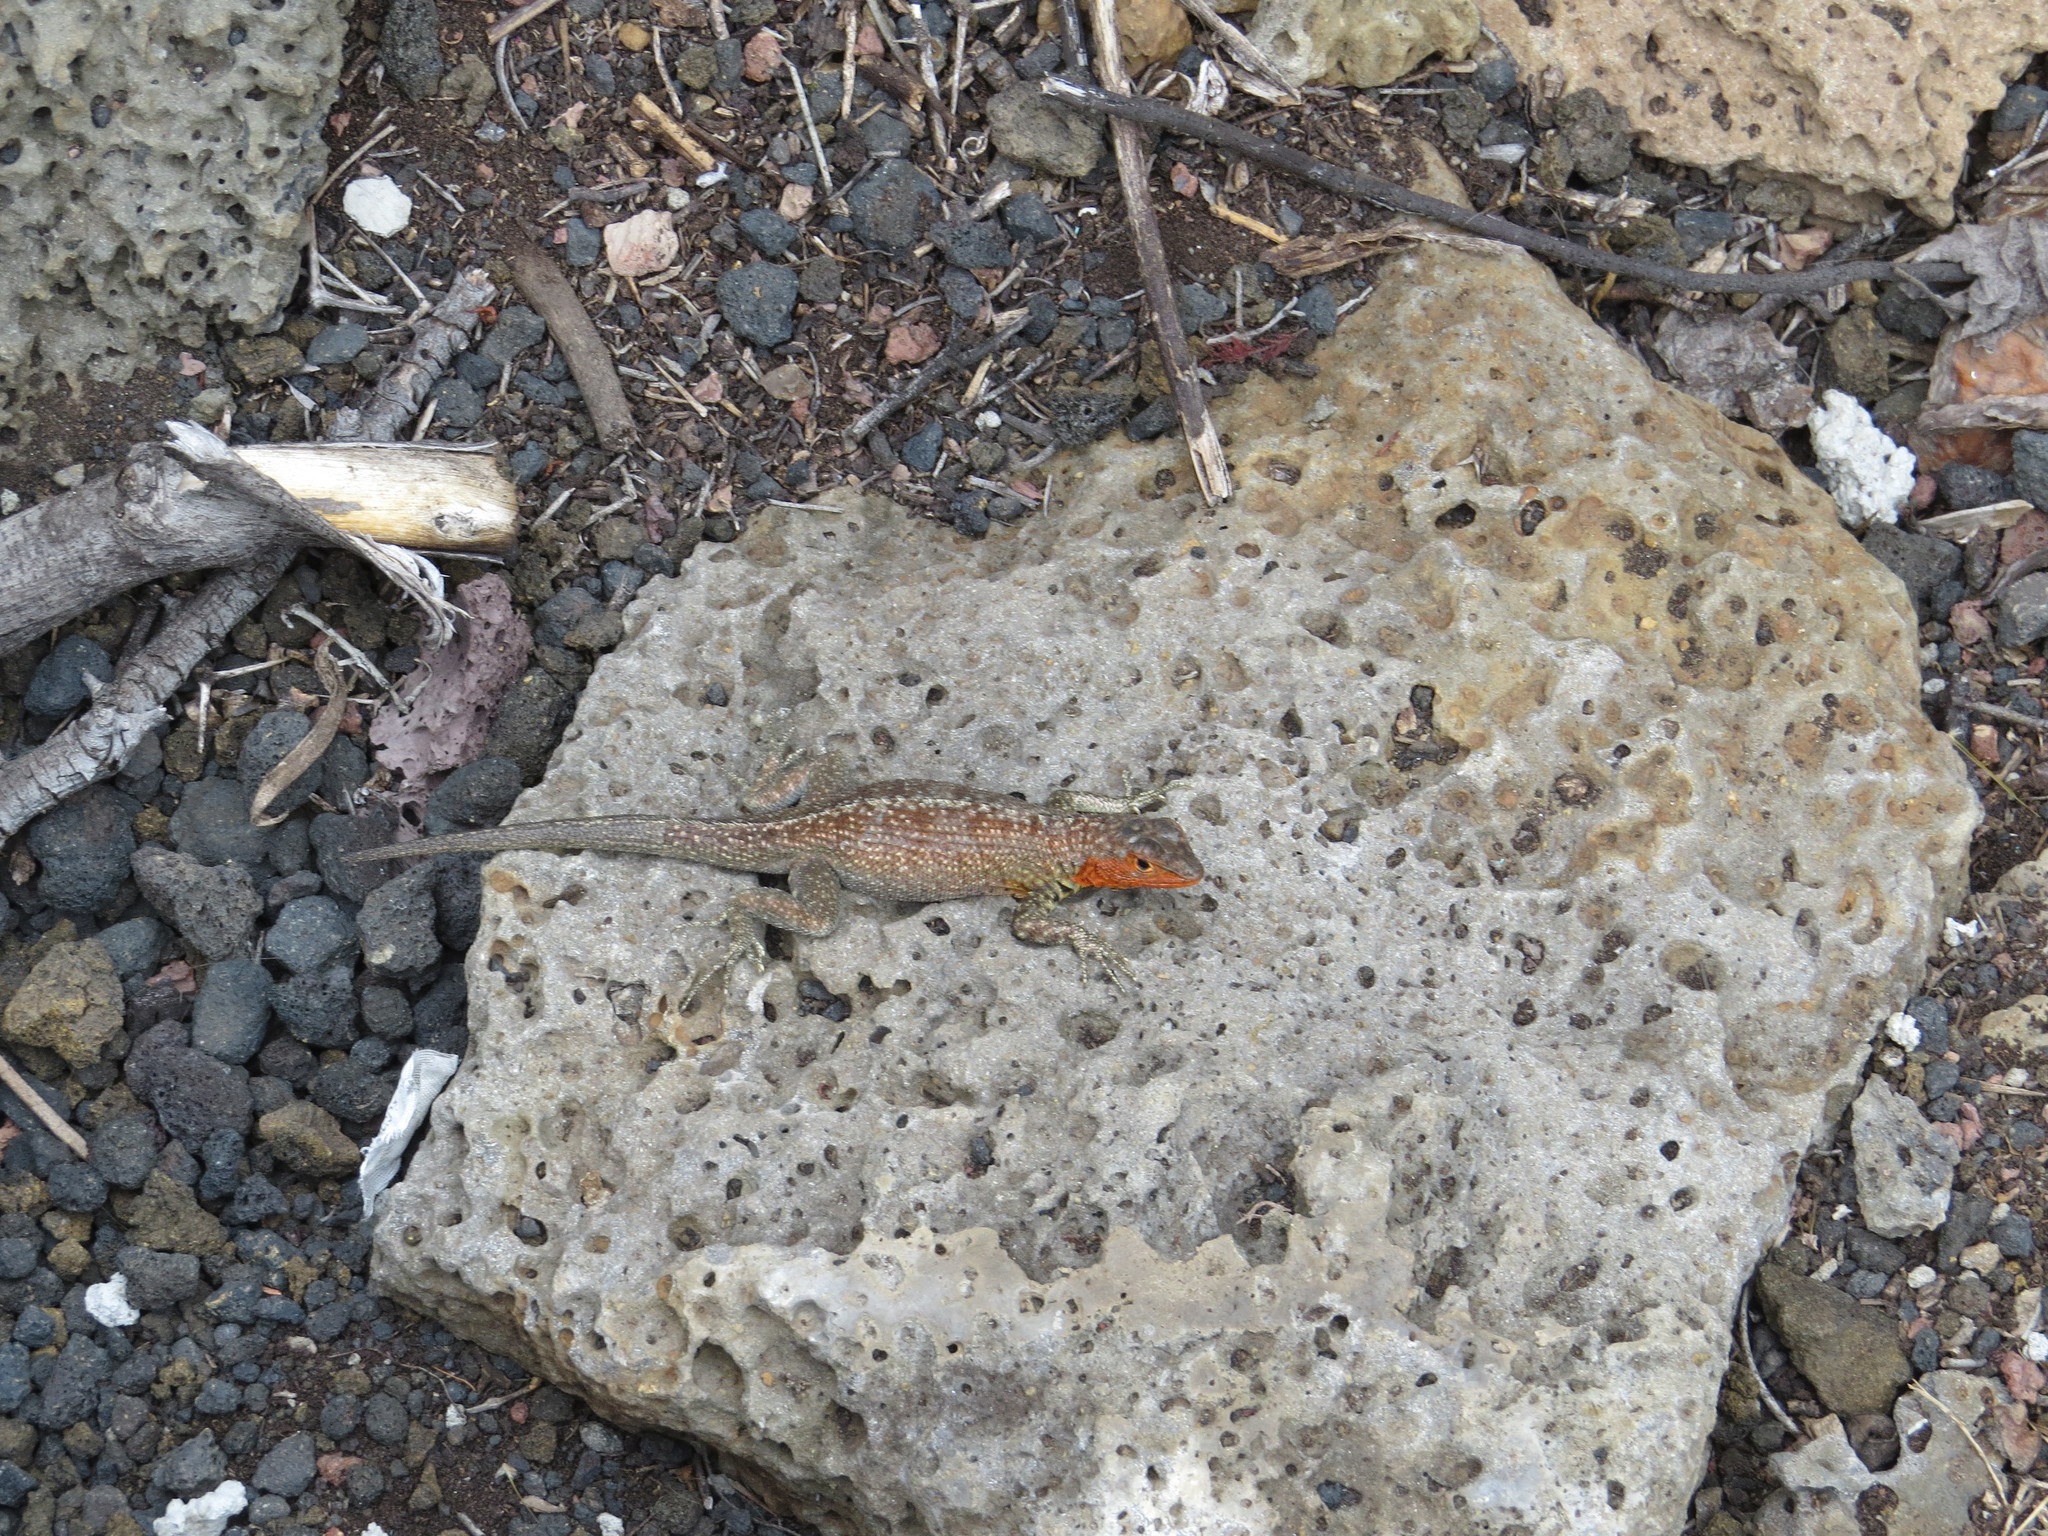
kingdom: Animalia
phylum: Chordata
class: Squamata
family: Tropiduridae
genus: Microlophus
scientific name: Microlophus indefatigabilis
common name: Galapagos lava lizard
